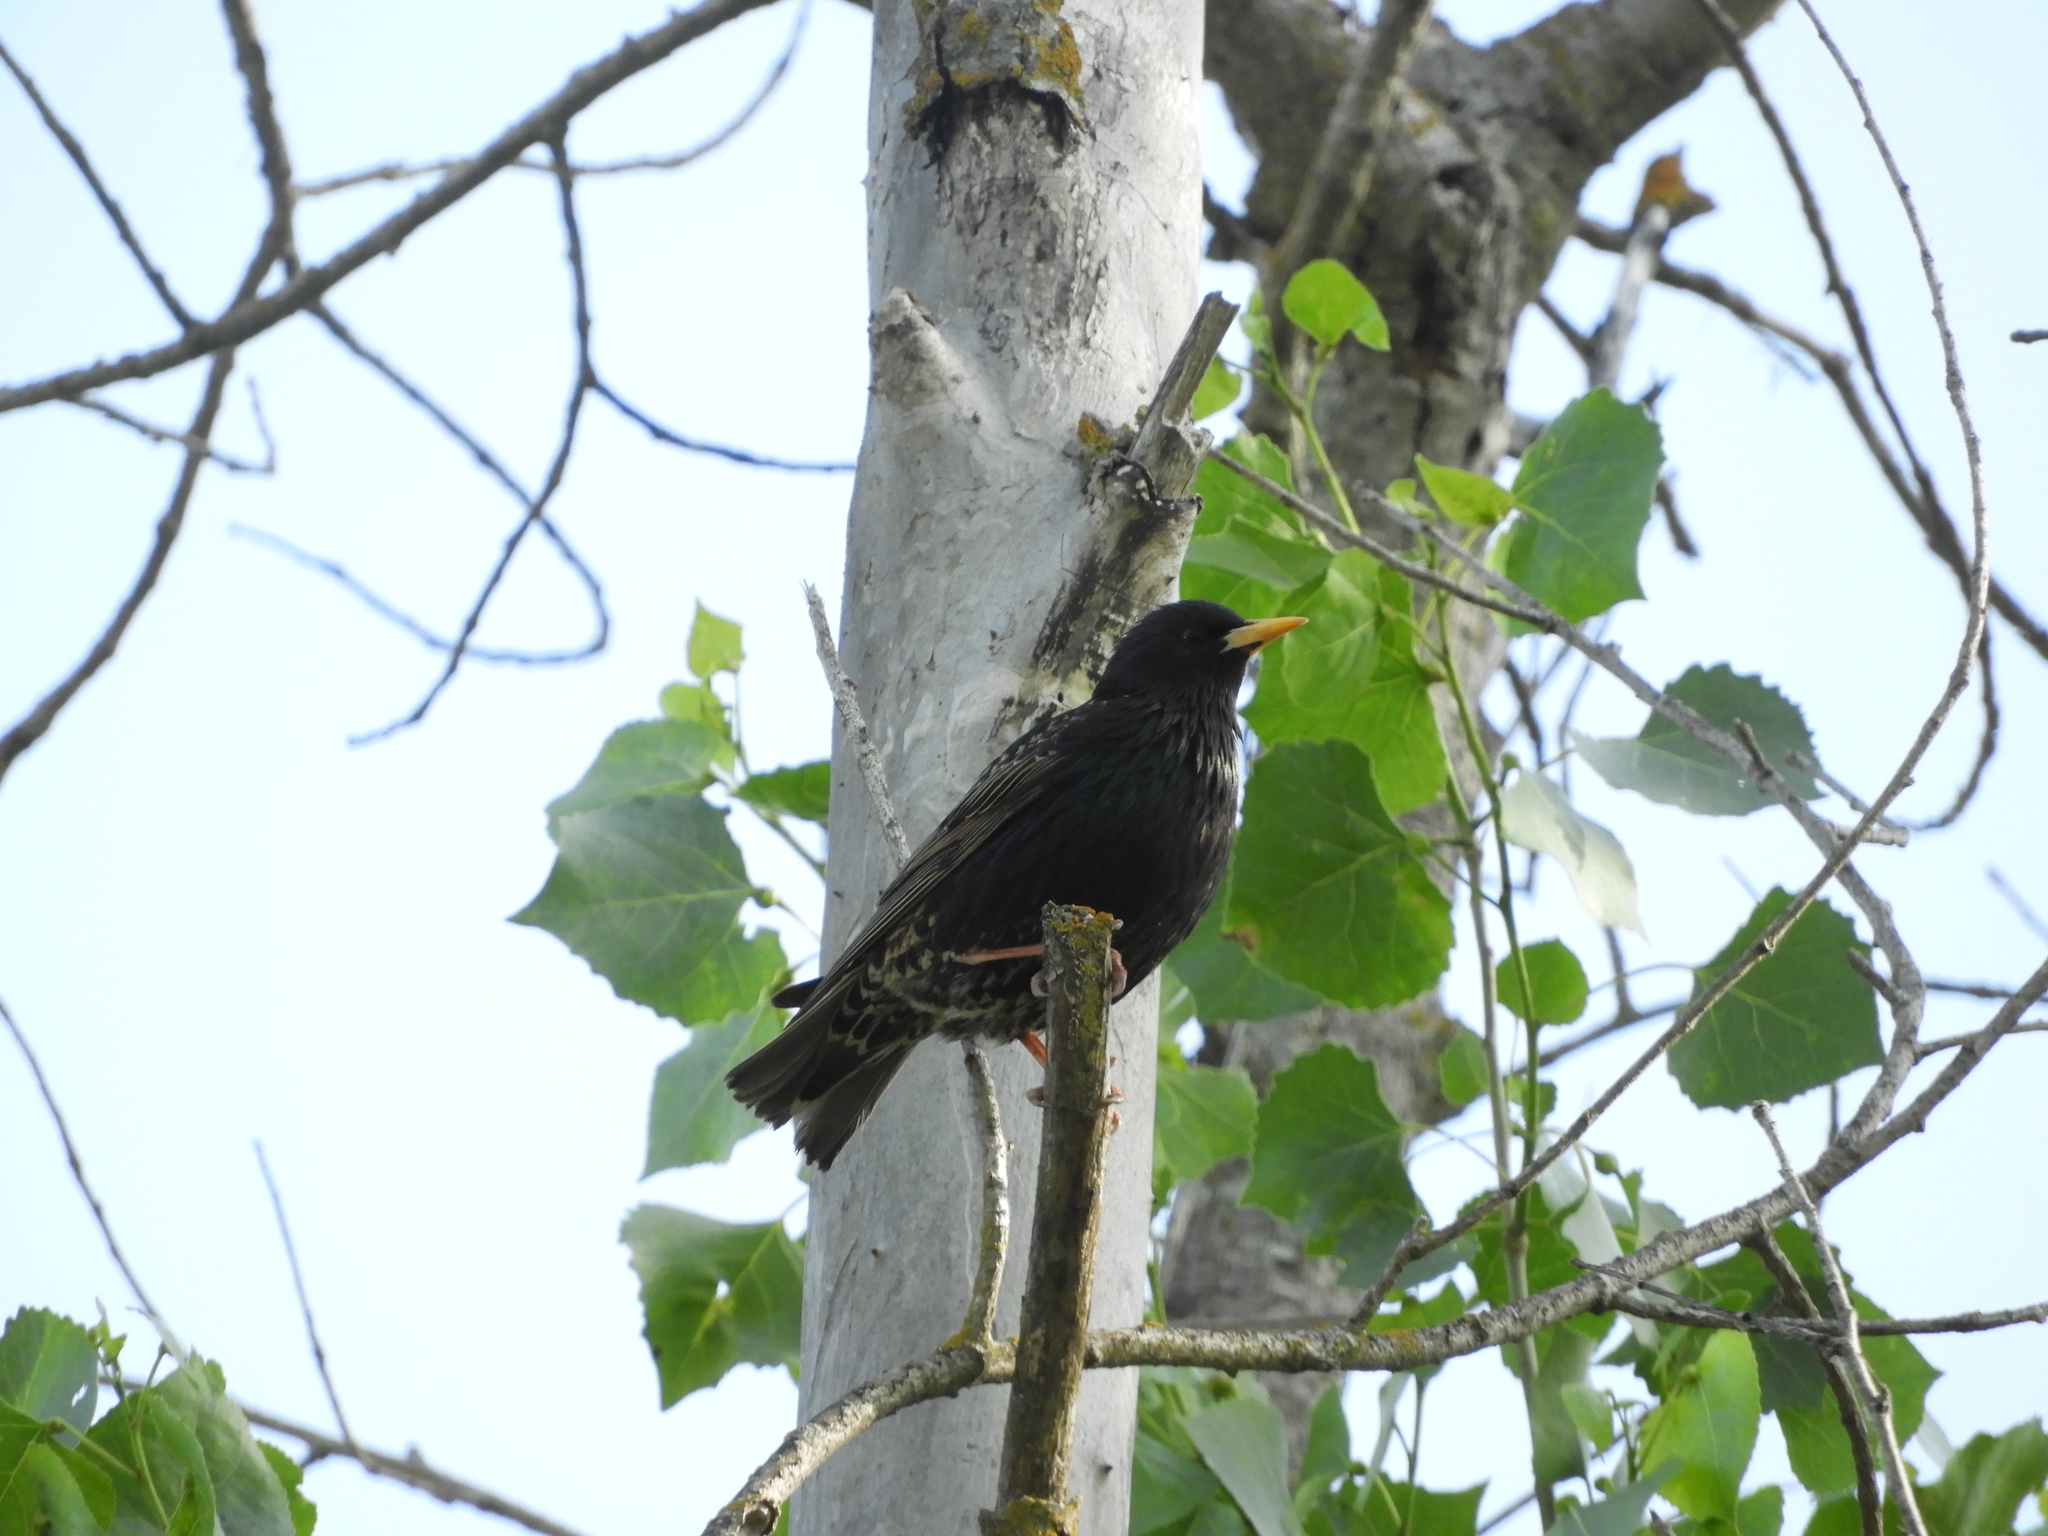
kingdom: Animalia
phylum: Chordata
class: Aves
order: Passeriformes
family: Sturnidae
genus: Sturnus
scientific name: Sturnus vulgaris
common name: Common starling
